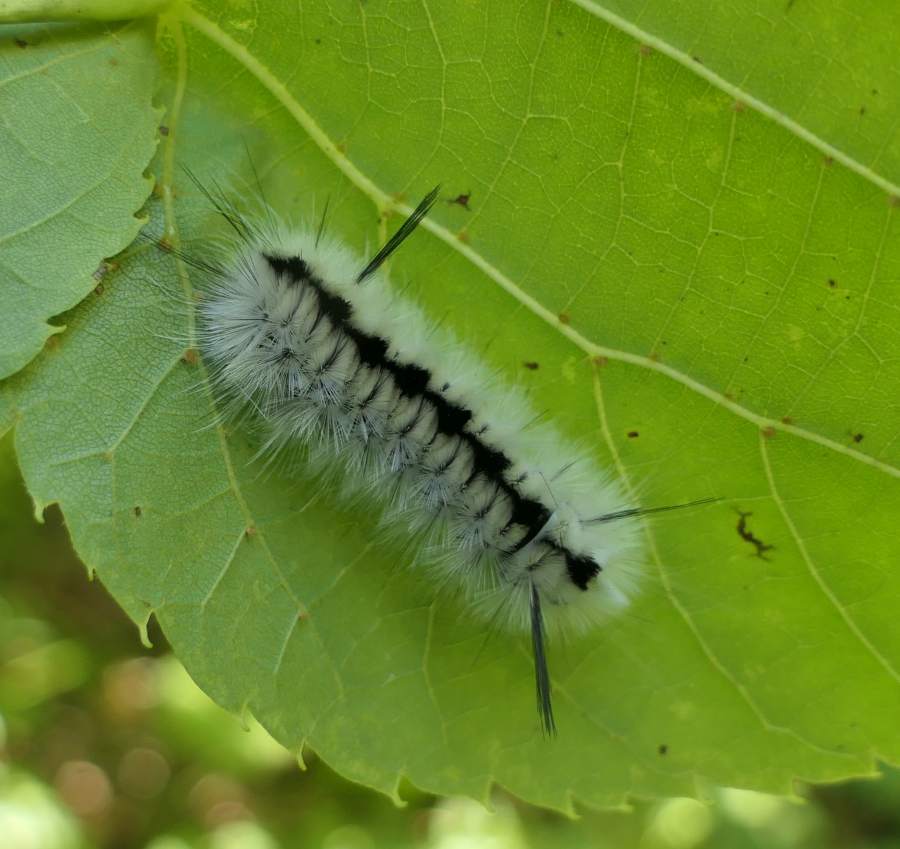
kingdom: Animalia
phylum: Arthropoda
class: Insecta
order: Lepidoptera
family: Erebidae
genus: Lophocampa
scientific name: Lophocampa caryae
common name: Hickory tussock moth
